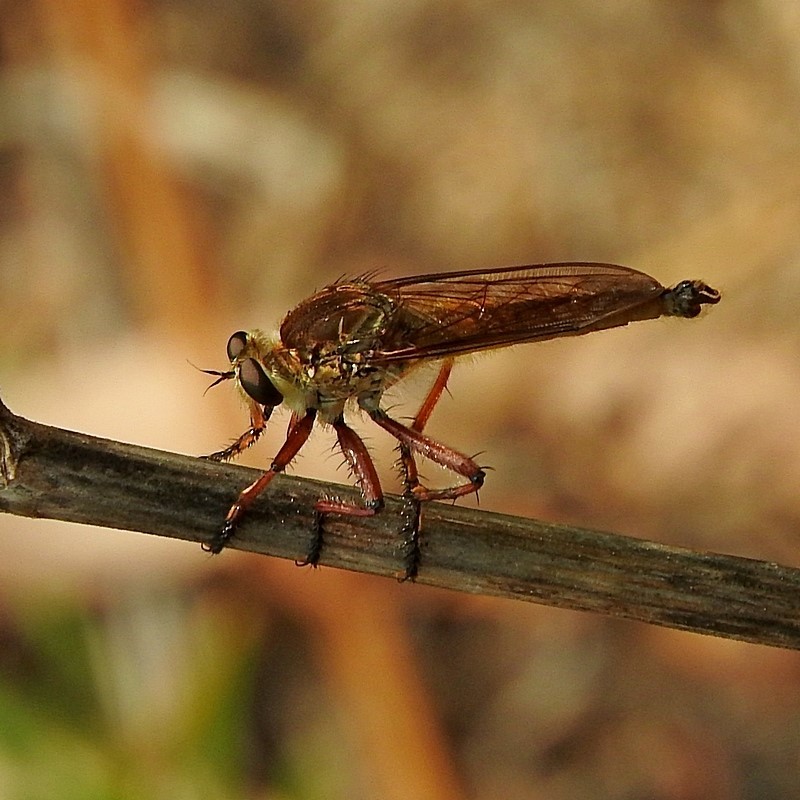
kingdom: Animalia
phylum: Arthropoda
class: Insecta
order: Diptera
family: Asilidae
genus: Colepia
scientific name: Colepia ingloria
